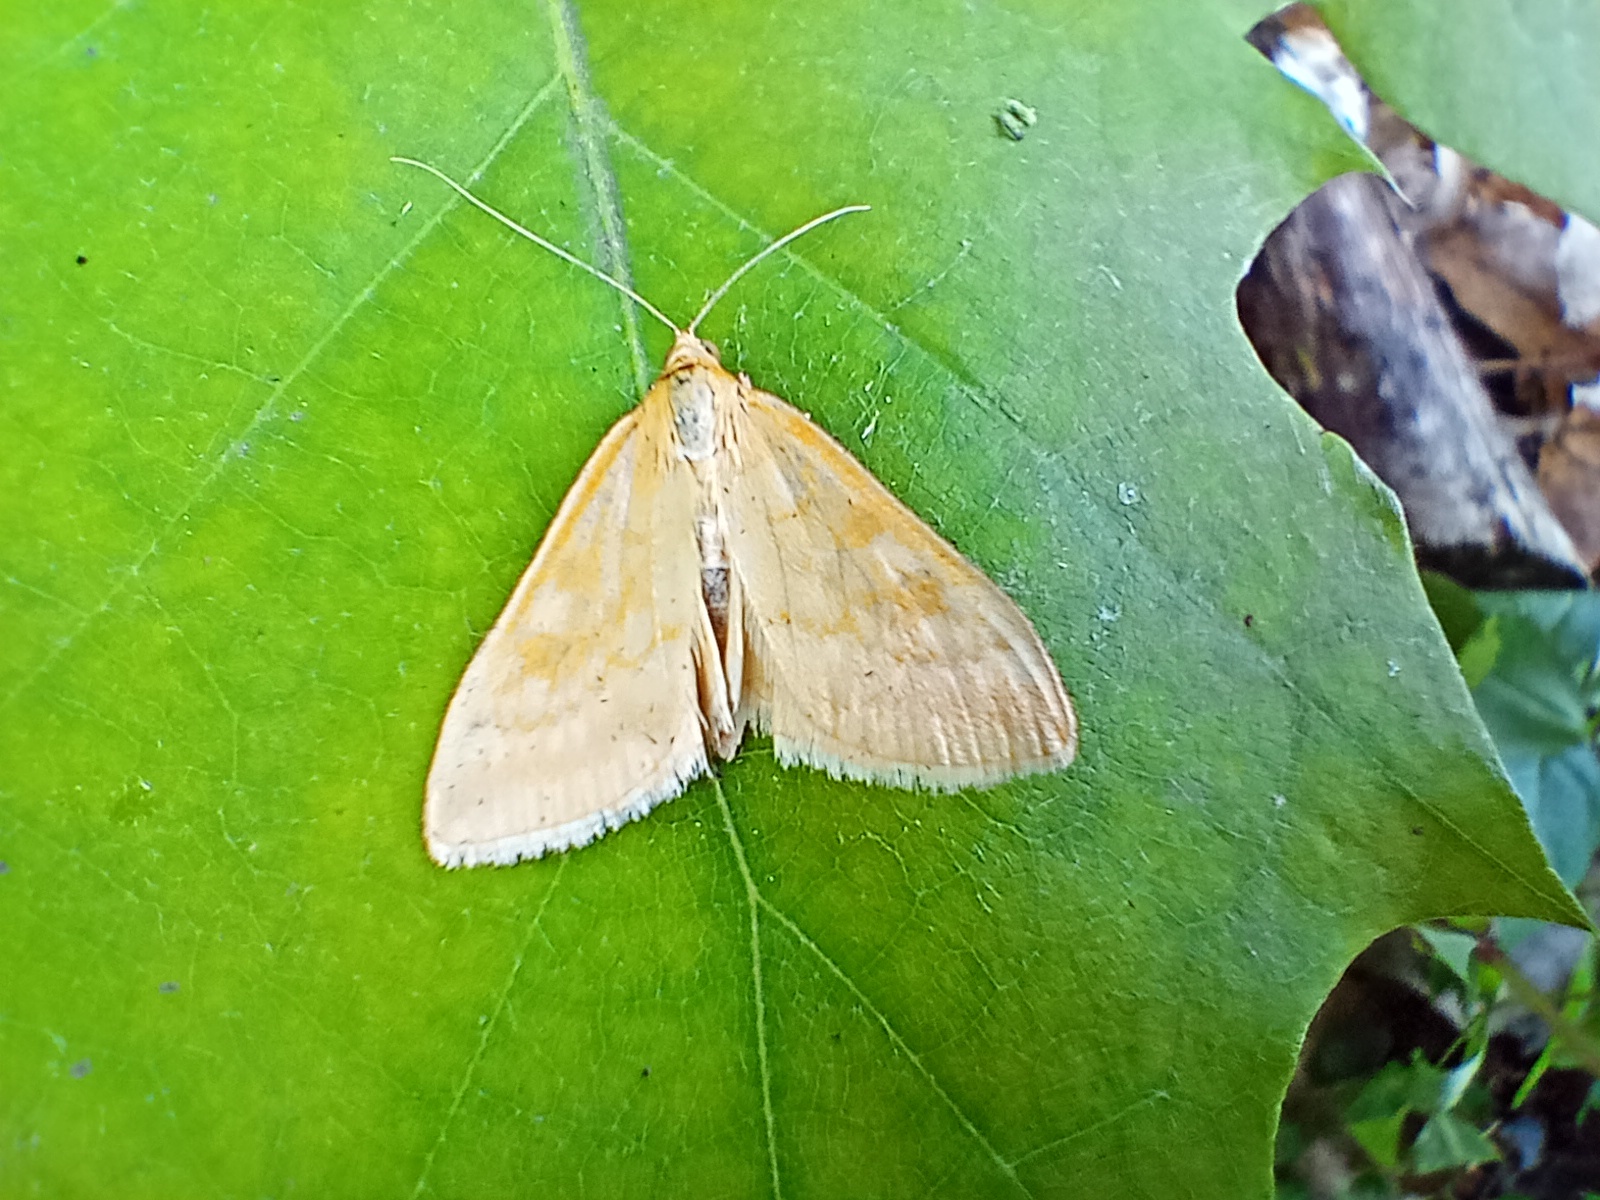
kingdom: Animalia
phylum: Arthropoda
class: Insecta
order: Lepidoptera
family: Crambidae
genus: Sitochroa
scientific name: Sitochroa verticalis
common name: Lesser pearl
